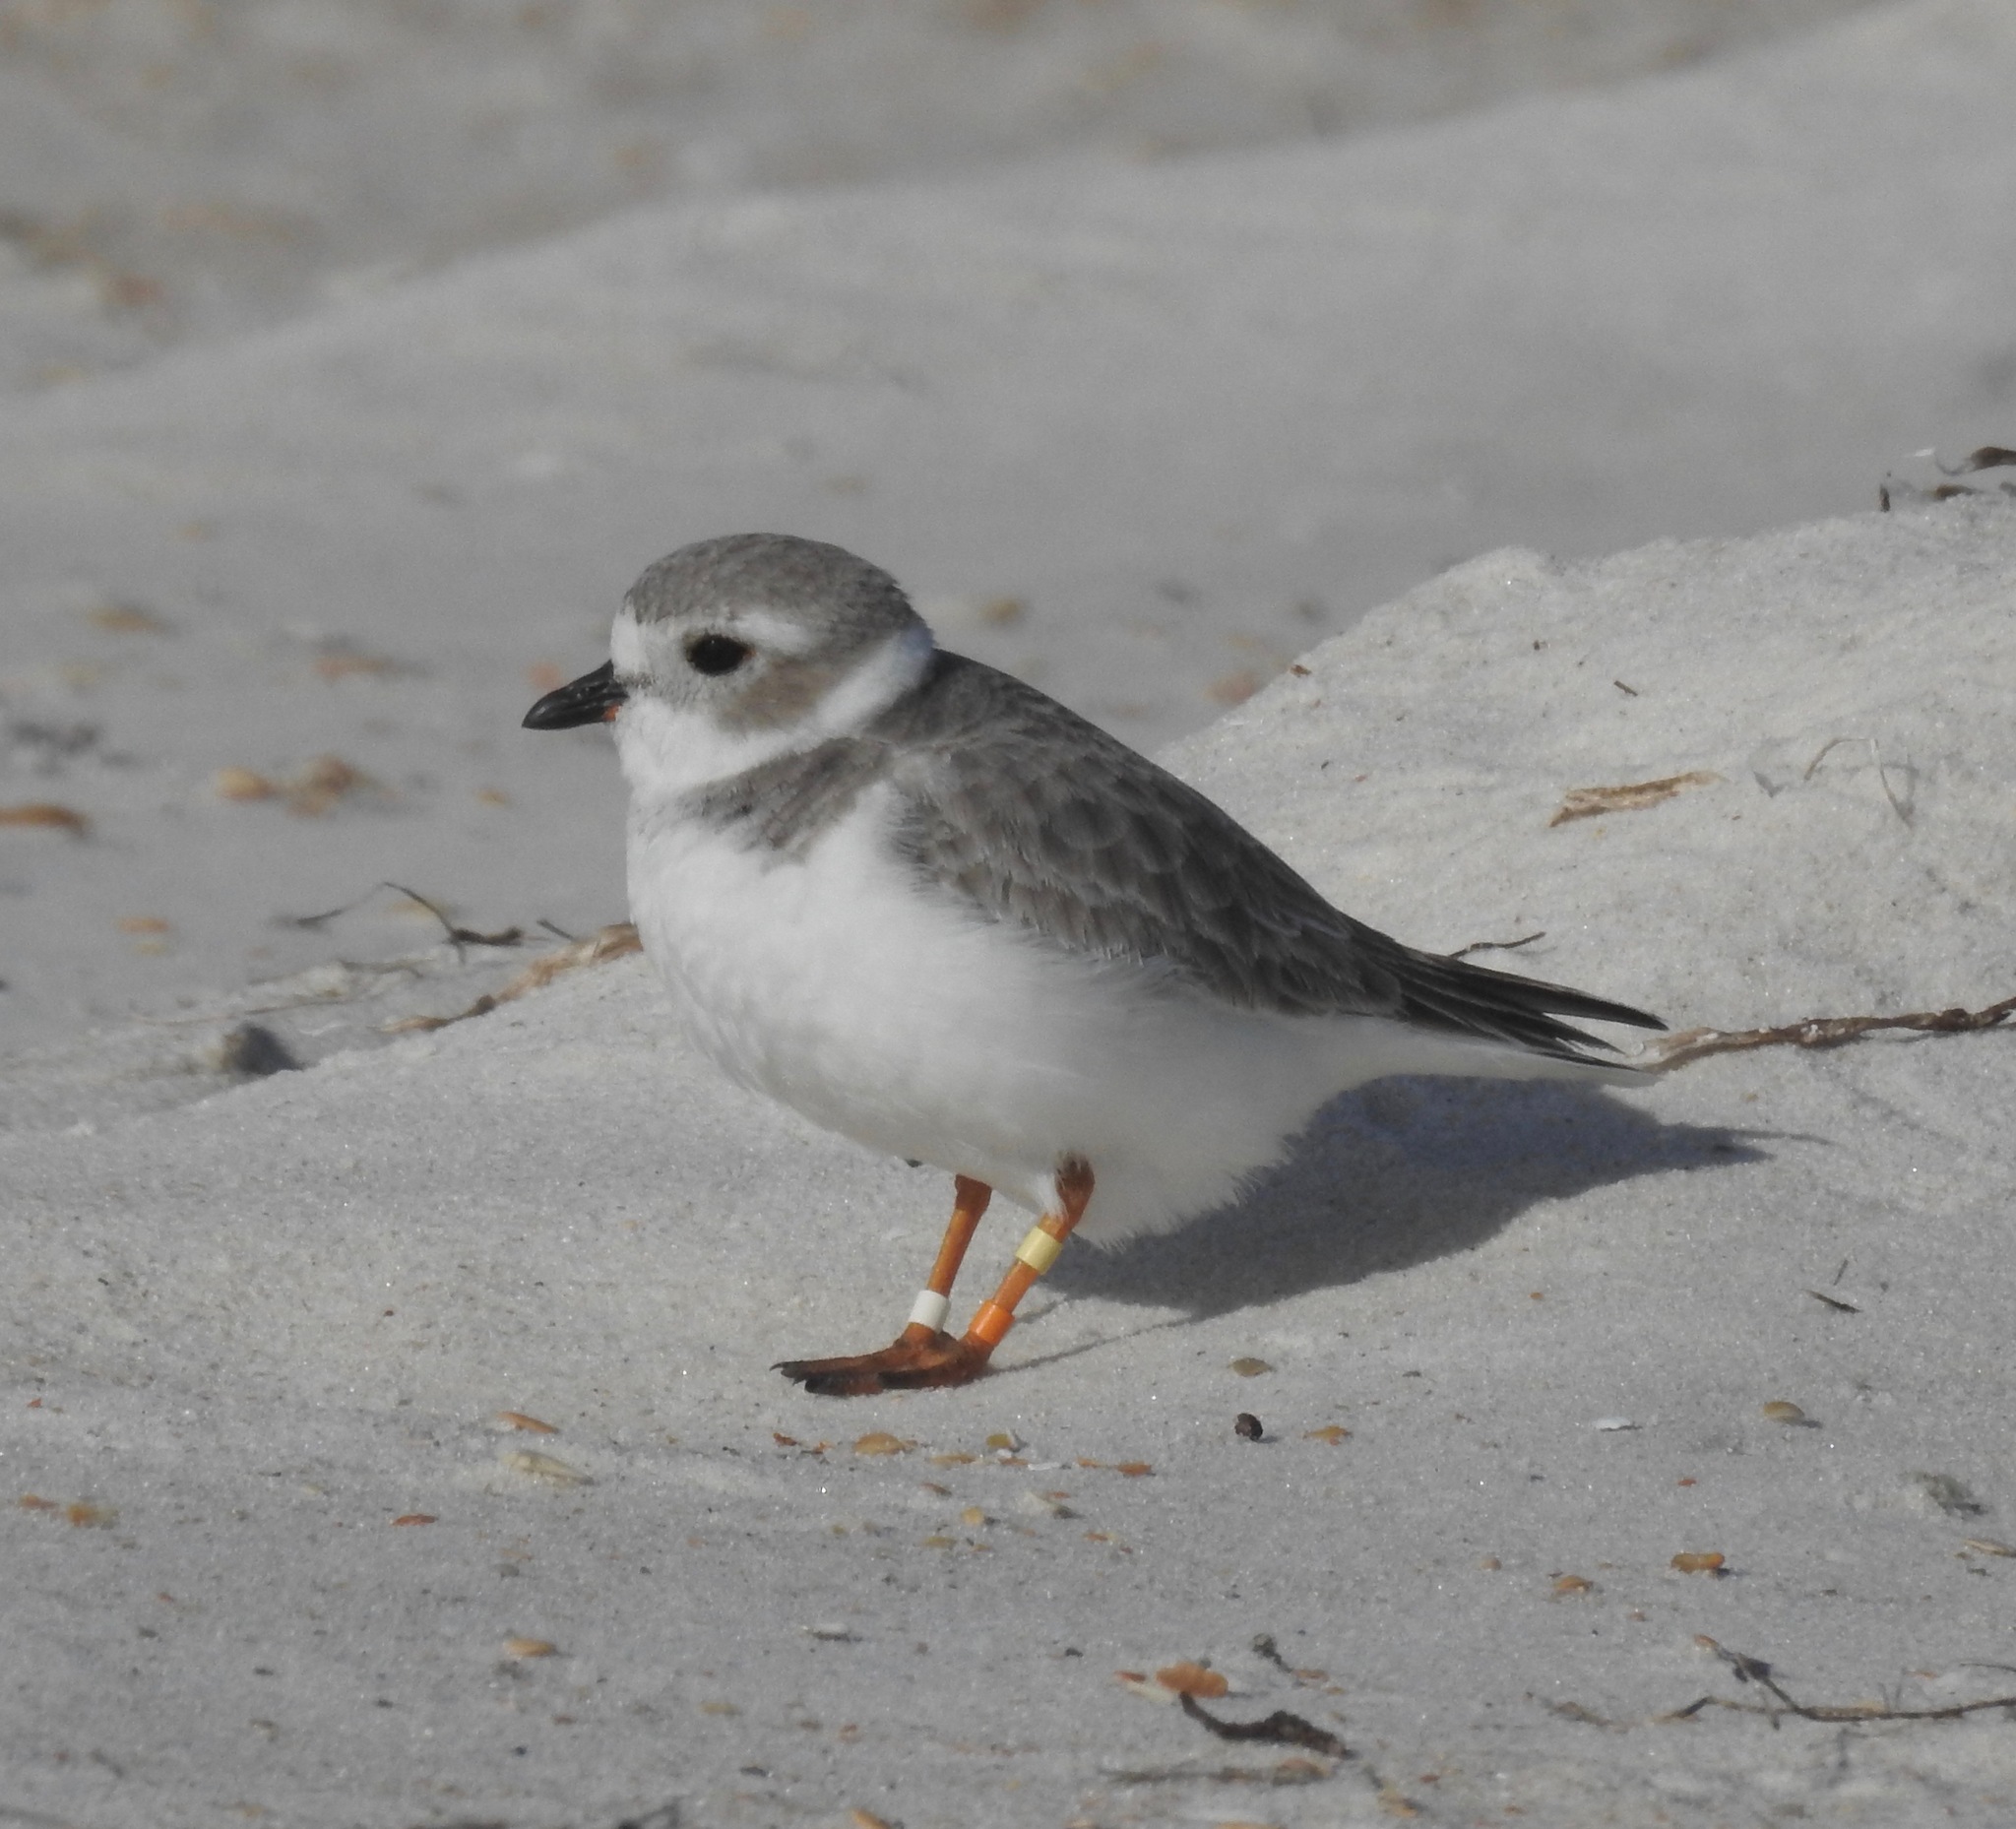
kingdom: Animalia
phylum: Chordata
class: Aves
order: Charadriiformes
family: Charadriidae
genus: Charadrius
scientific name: Charadrius melodus
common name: Piping plover
